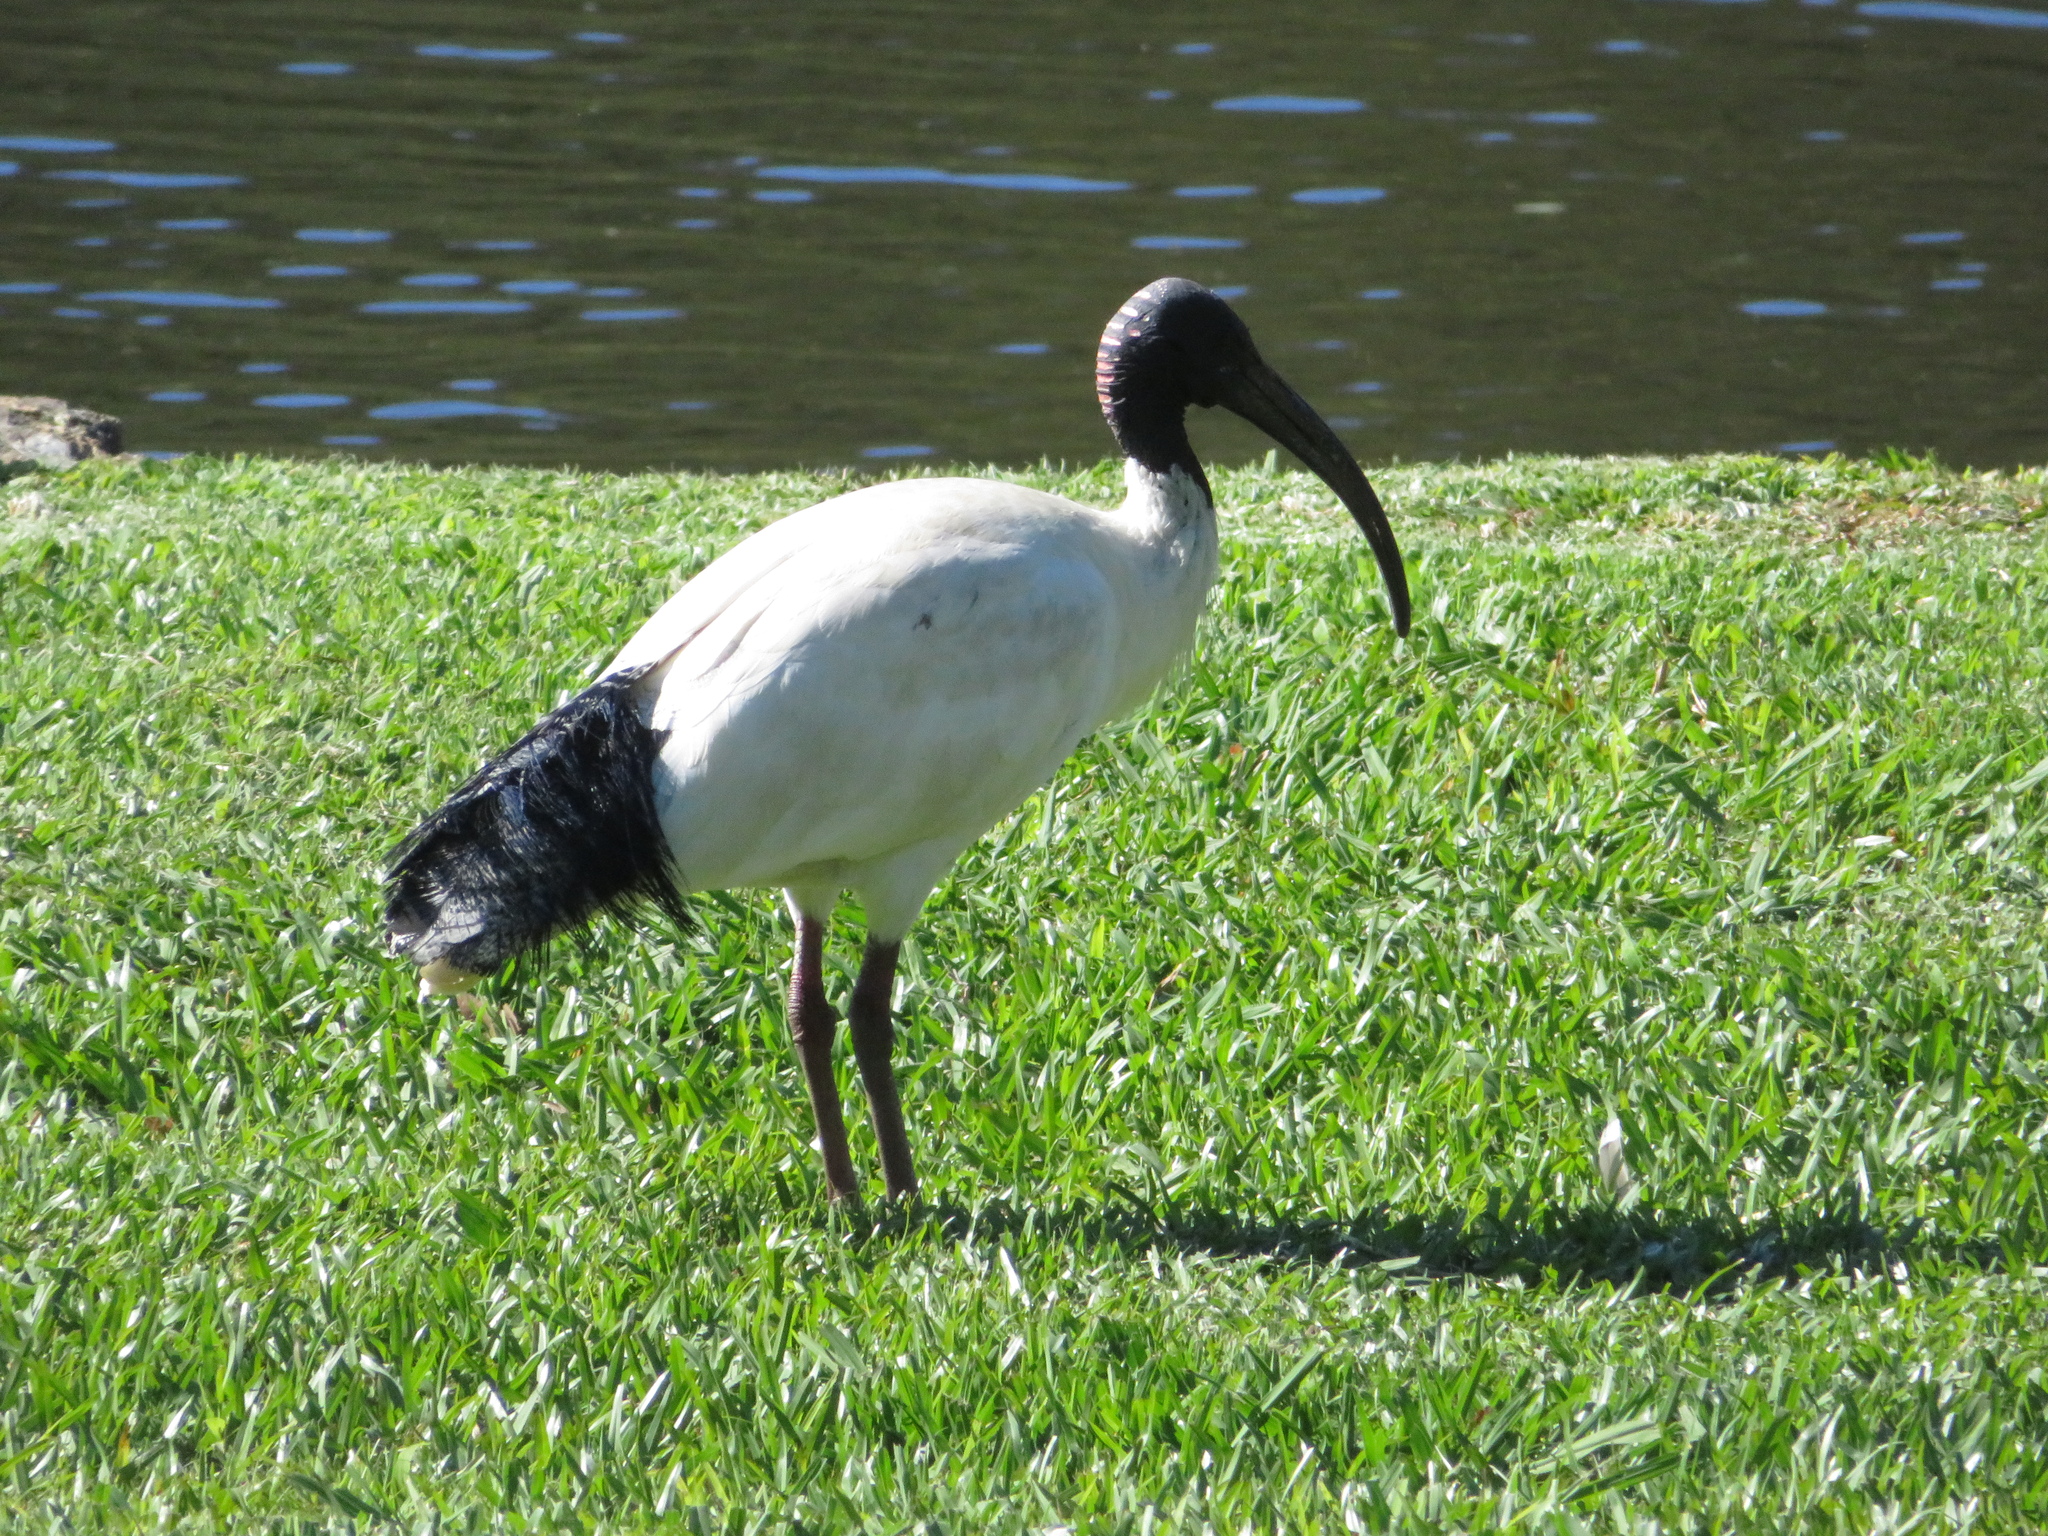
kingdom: Animalia
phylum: Chordata
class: Aves
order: Pelecaniformes
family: Threskiornithidae
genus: Threskiornis
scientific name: Threskiornis molucca
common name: Australian white ibis
